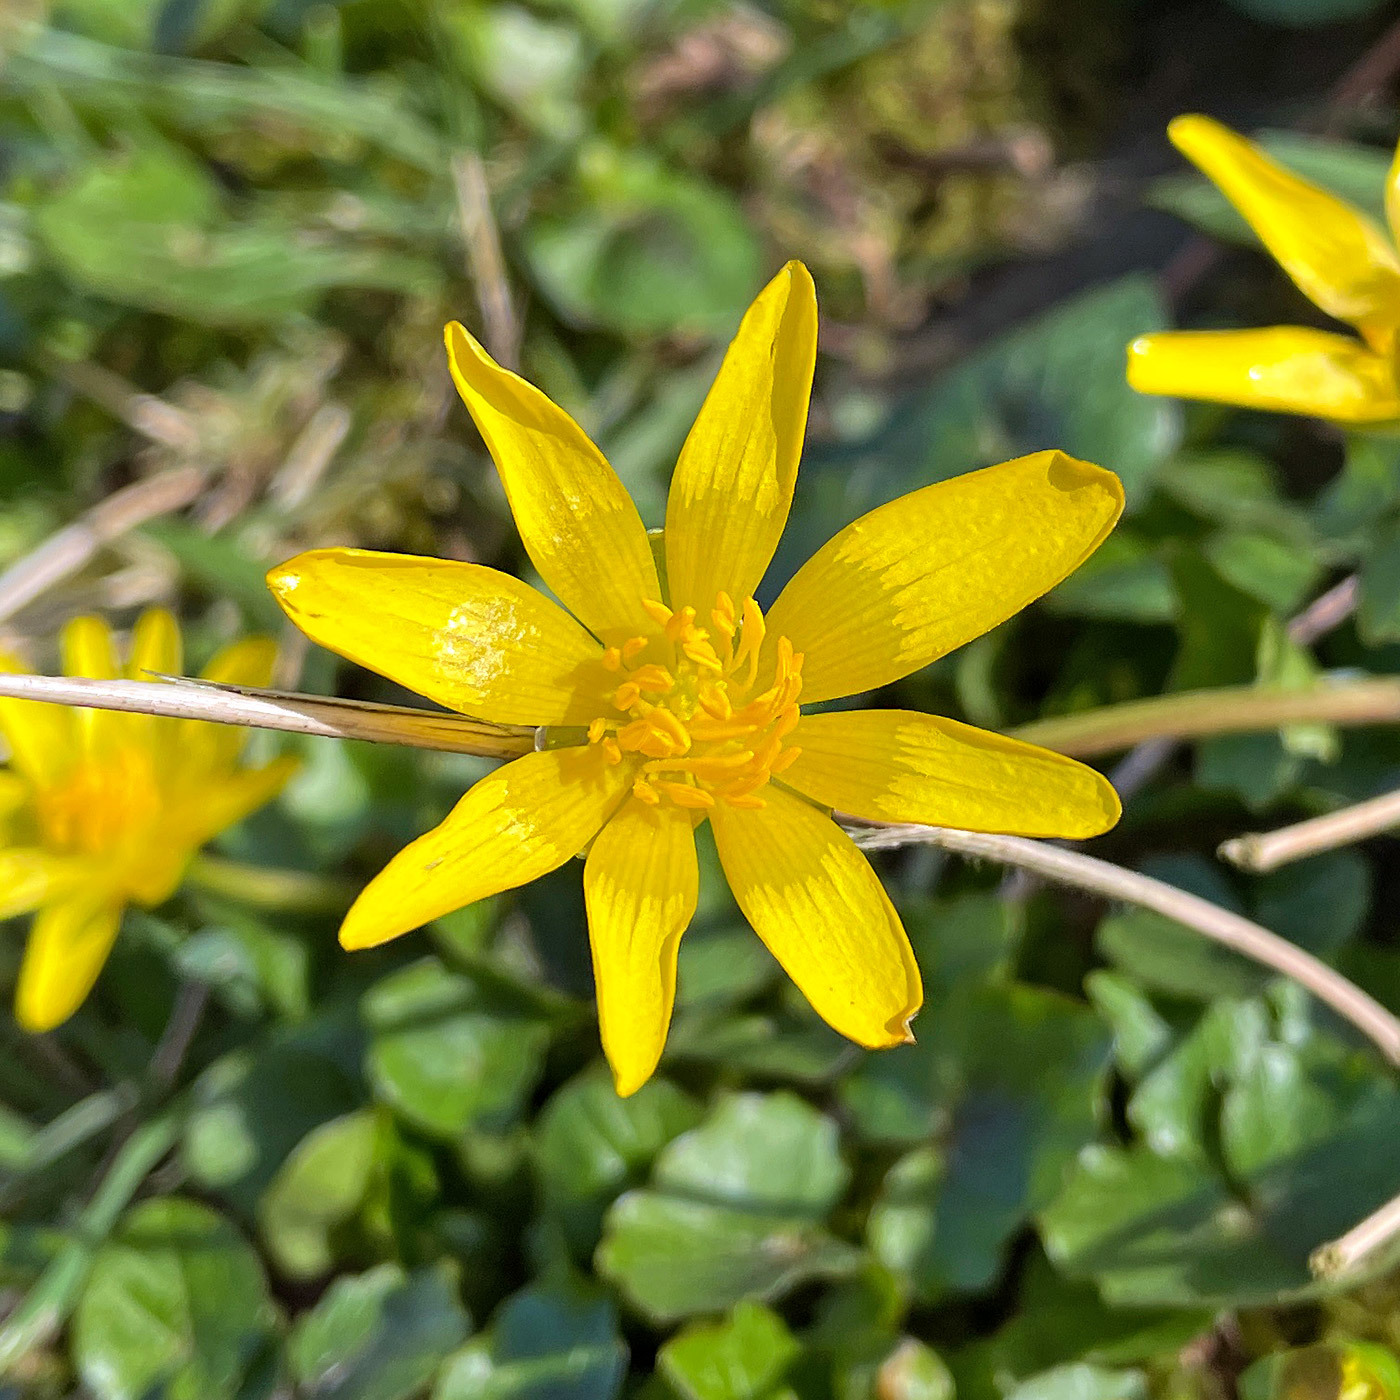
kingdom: Plantae
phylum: Tracheophyta
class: Magnoliopsida
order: Ranunculales
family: Ranunculaceae
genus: Ficaria
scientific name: Ficaria verna
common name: Lesser celandine
